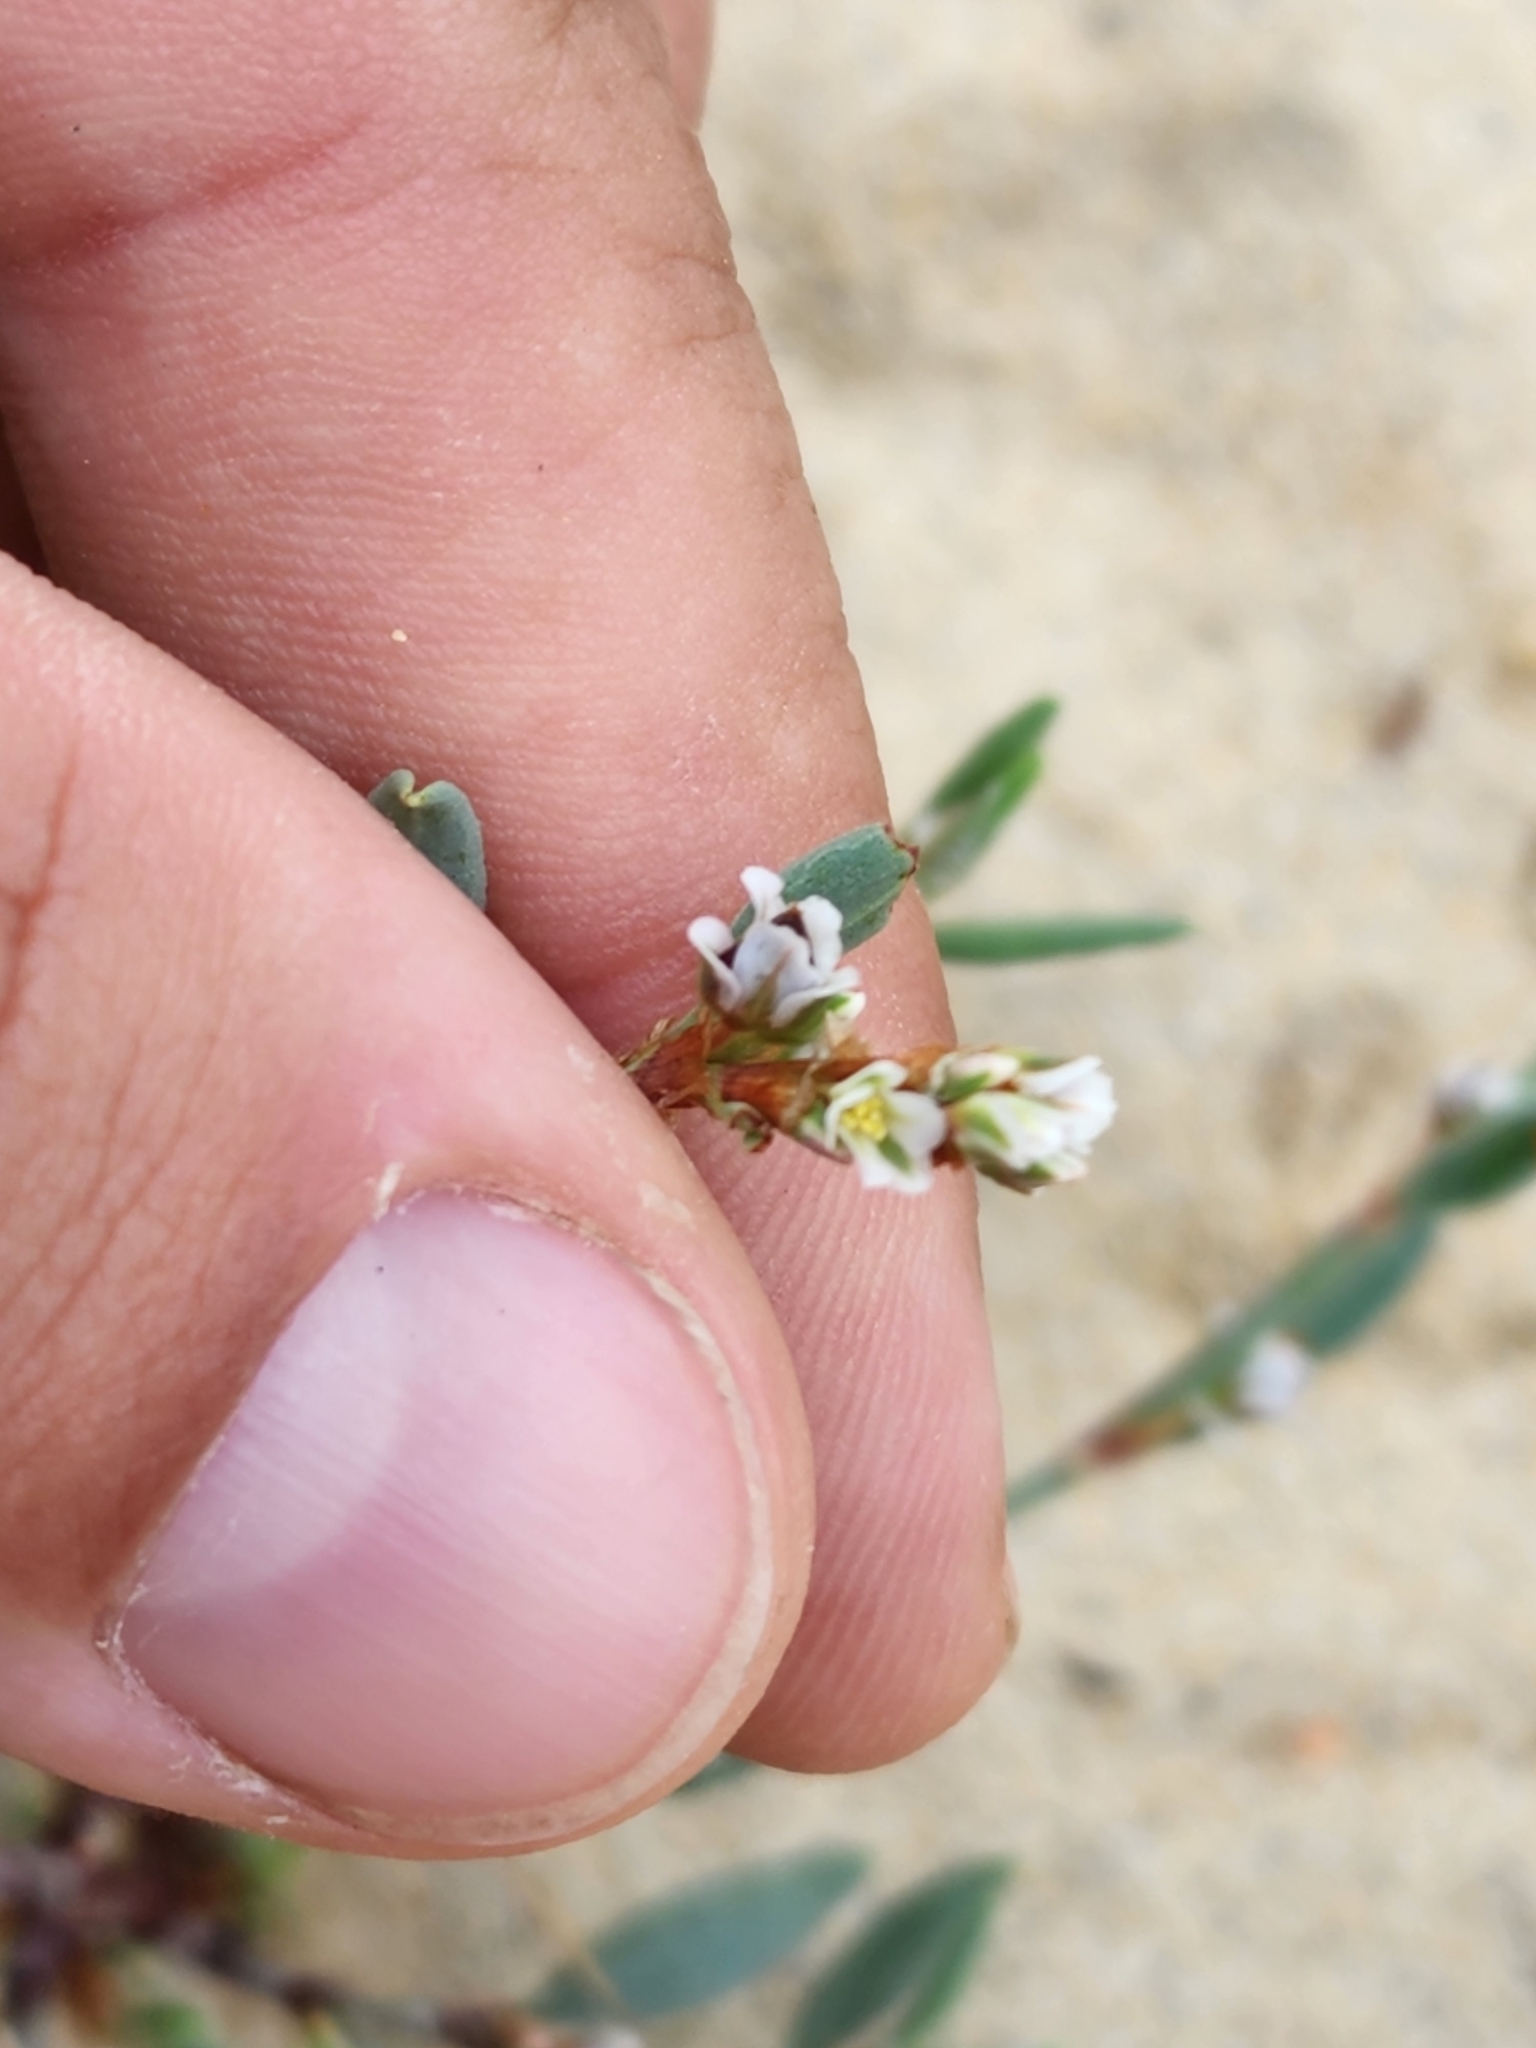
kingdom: Plantae
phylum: Tracheophyta
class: Magnoliopsida
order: Caryophyllales
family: Polygonaceae
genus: Polygonum
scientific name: Polygonum maritimum
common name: Sea knotgrass
